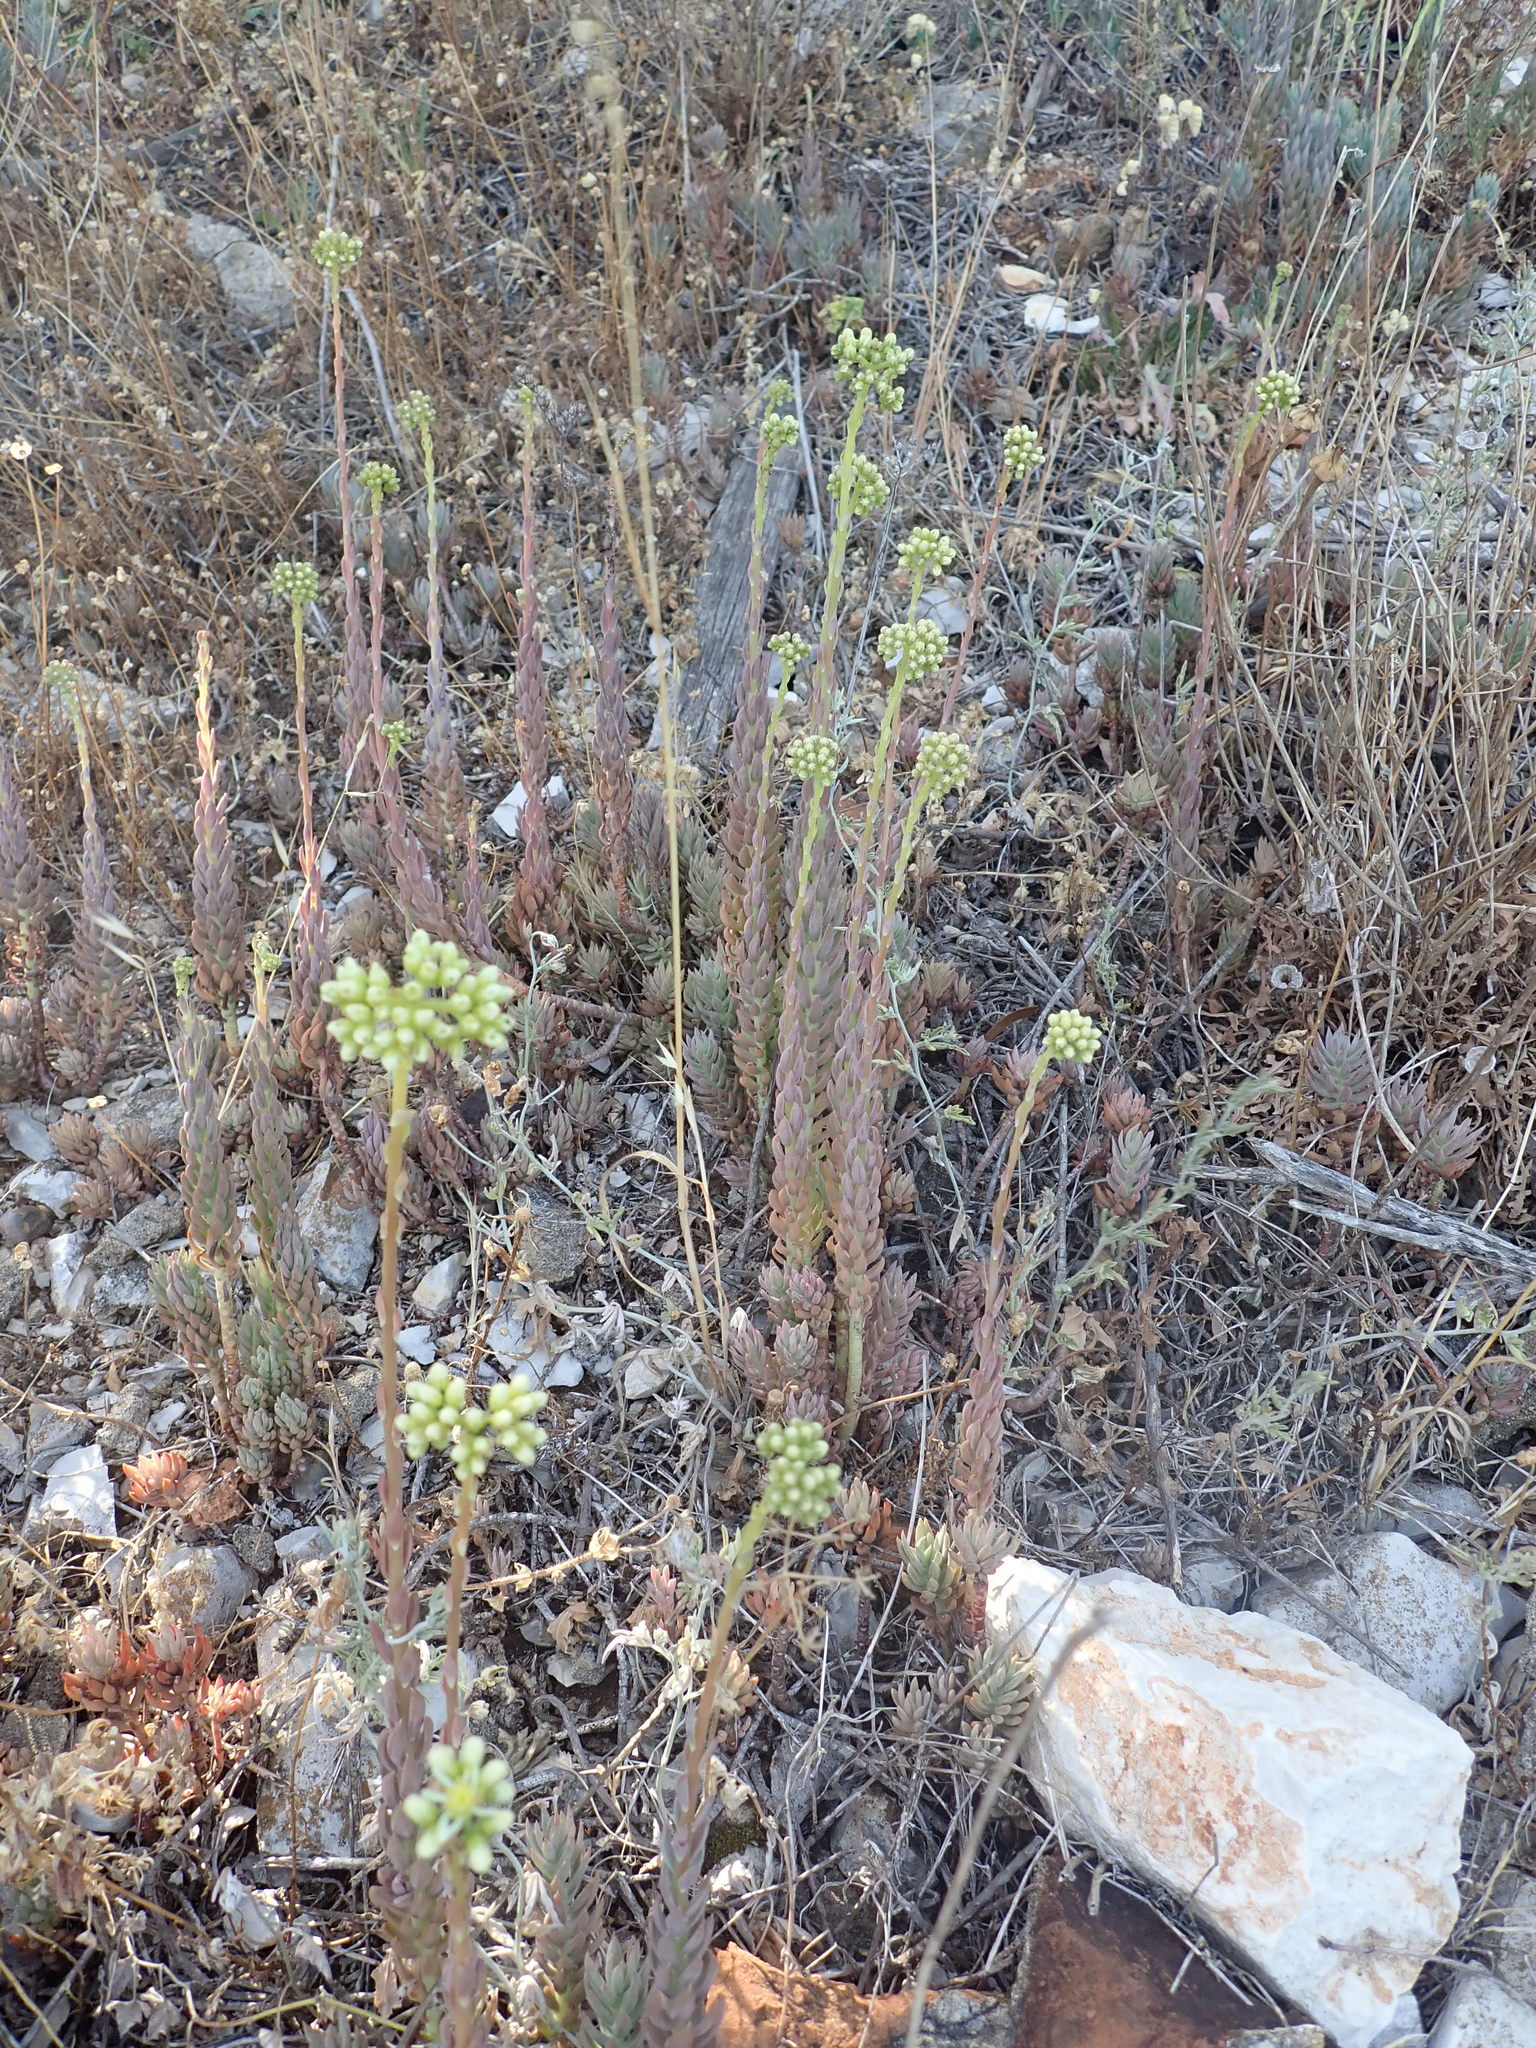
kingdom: Plantae
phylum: Tracheophyta
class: Magnoliopsida
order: Saxifragales
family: Crassulaceae
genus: Petrosedum
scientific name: Petrosedum sediforme
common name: Pale stonecrop
